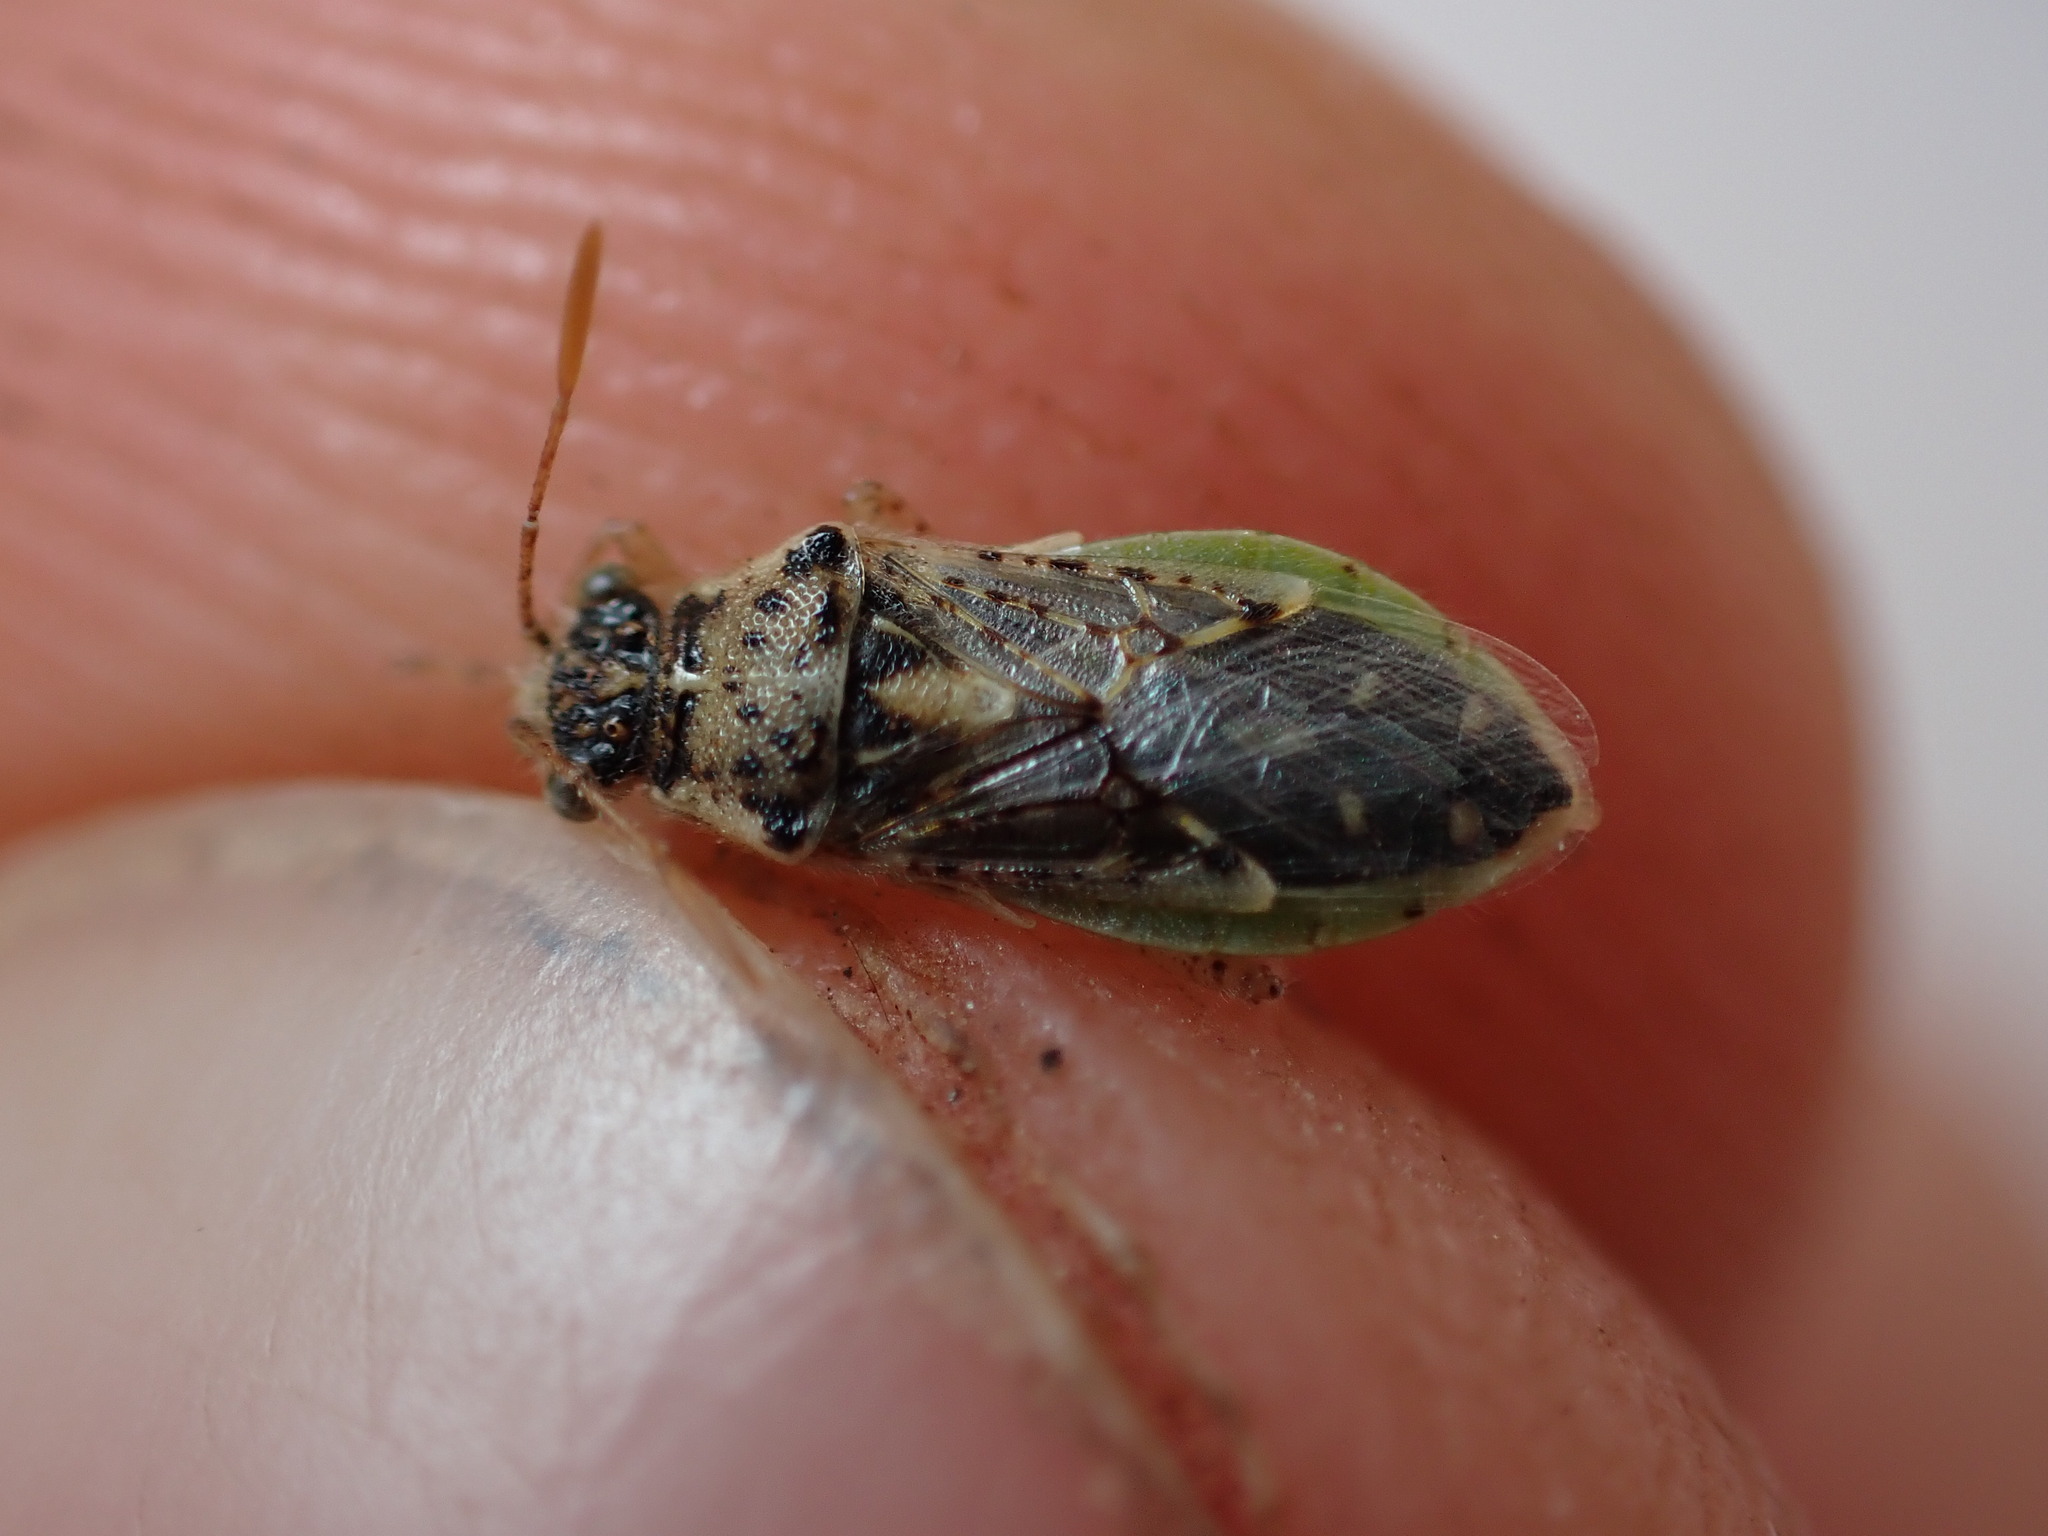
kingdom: Animalia
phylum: Arthropoda
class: Insecta
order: Hemiptera
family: Rhopalidae
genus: Brachycarenus
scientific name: Brachycarenus tigrinus
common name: Scentless plant bug
